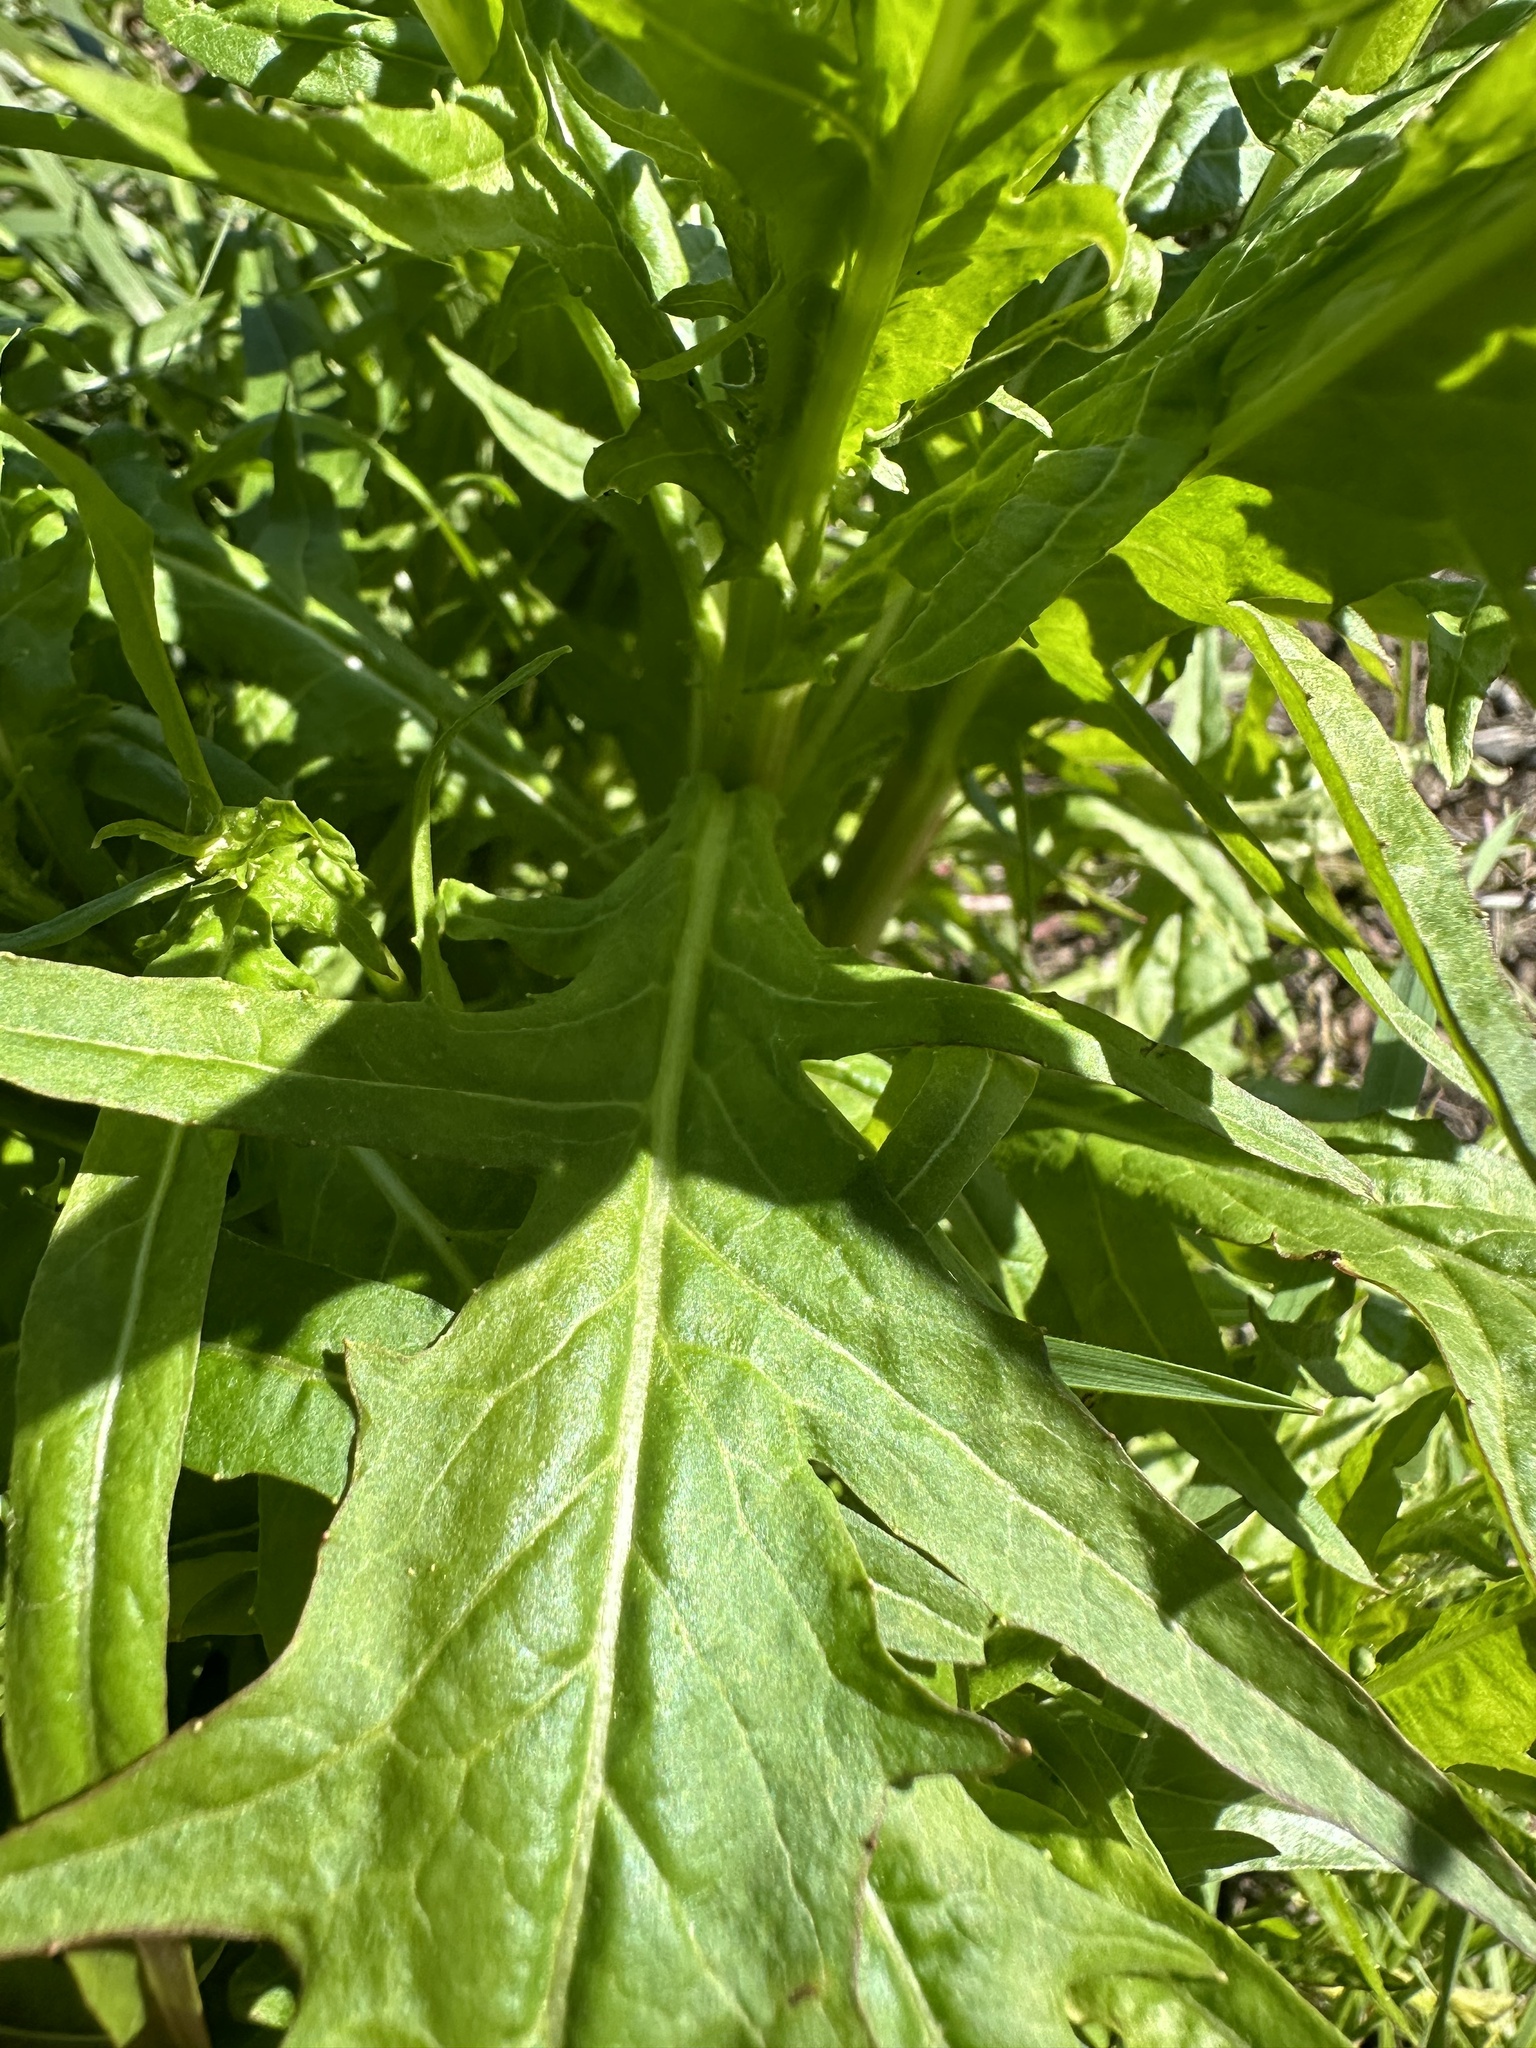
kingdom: Plantae
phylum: Tracheophyta
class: Magnoliopsida
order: Asterales
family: Asteraceae
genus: Malacothrix
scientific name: Malacothrix saxatilis
